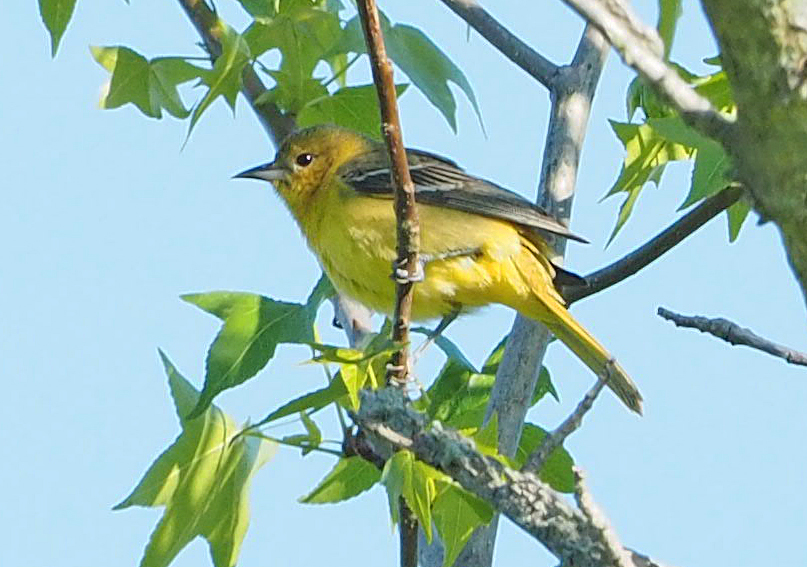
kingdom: Animalia
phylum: Chordata
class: Aves
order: Passeriformes
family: Icteridae
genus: Icterus
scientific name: Icterus spurius
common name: Orchard oriole
